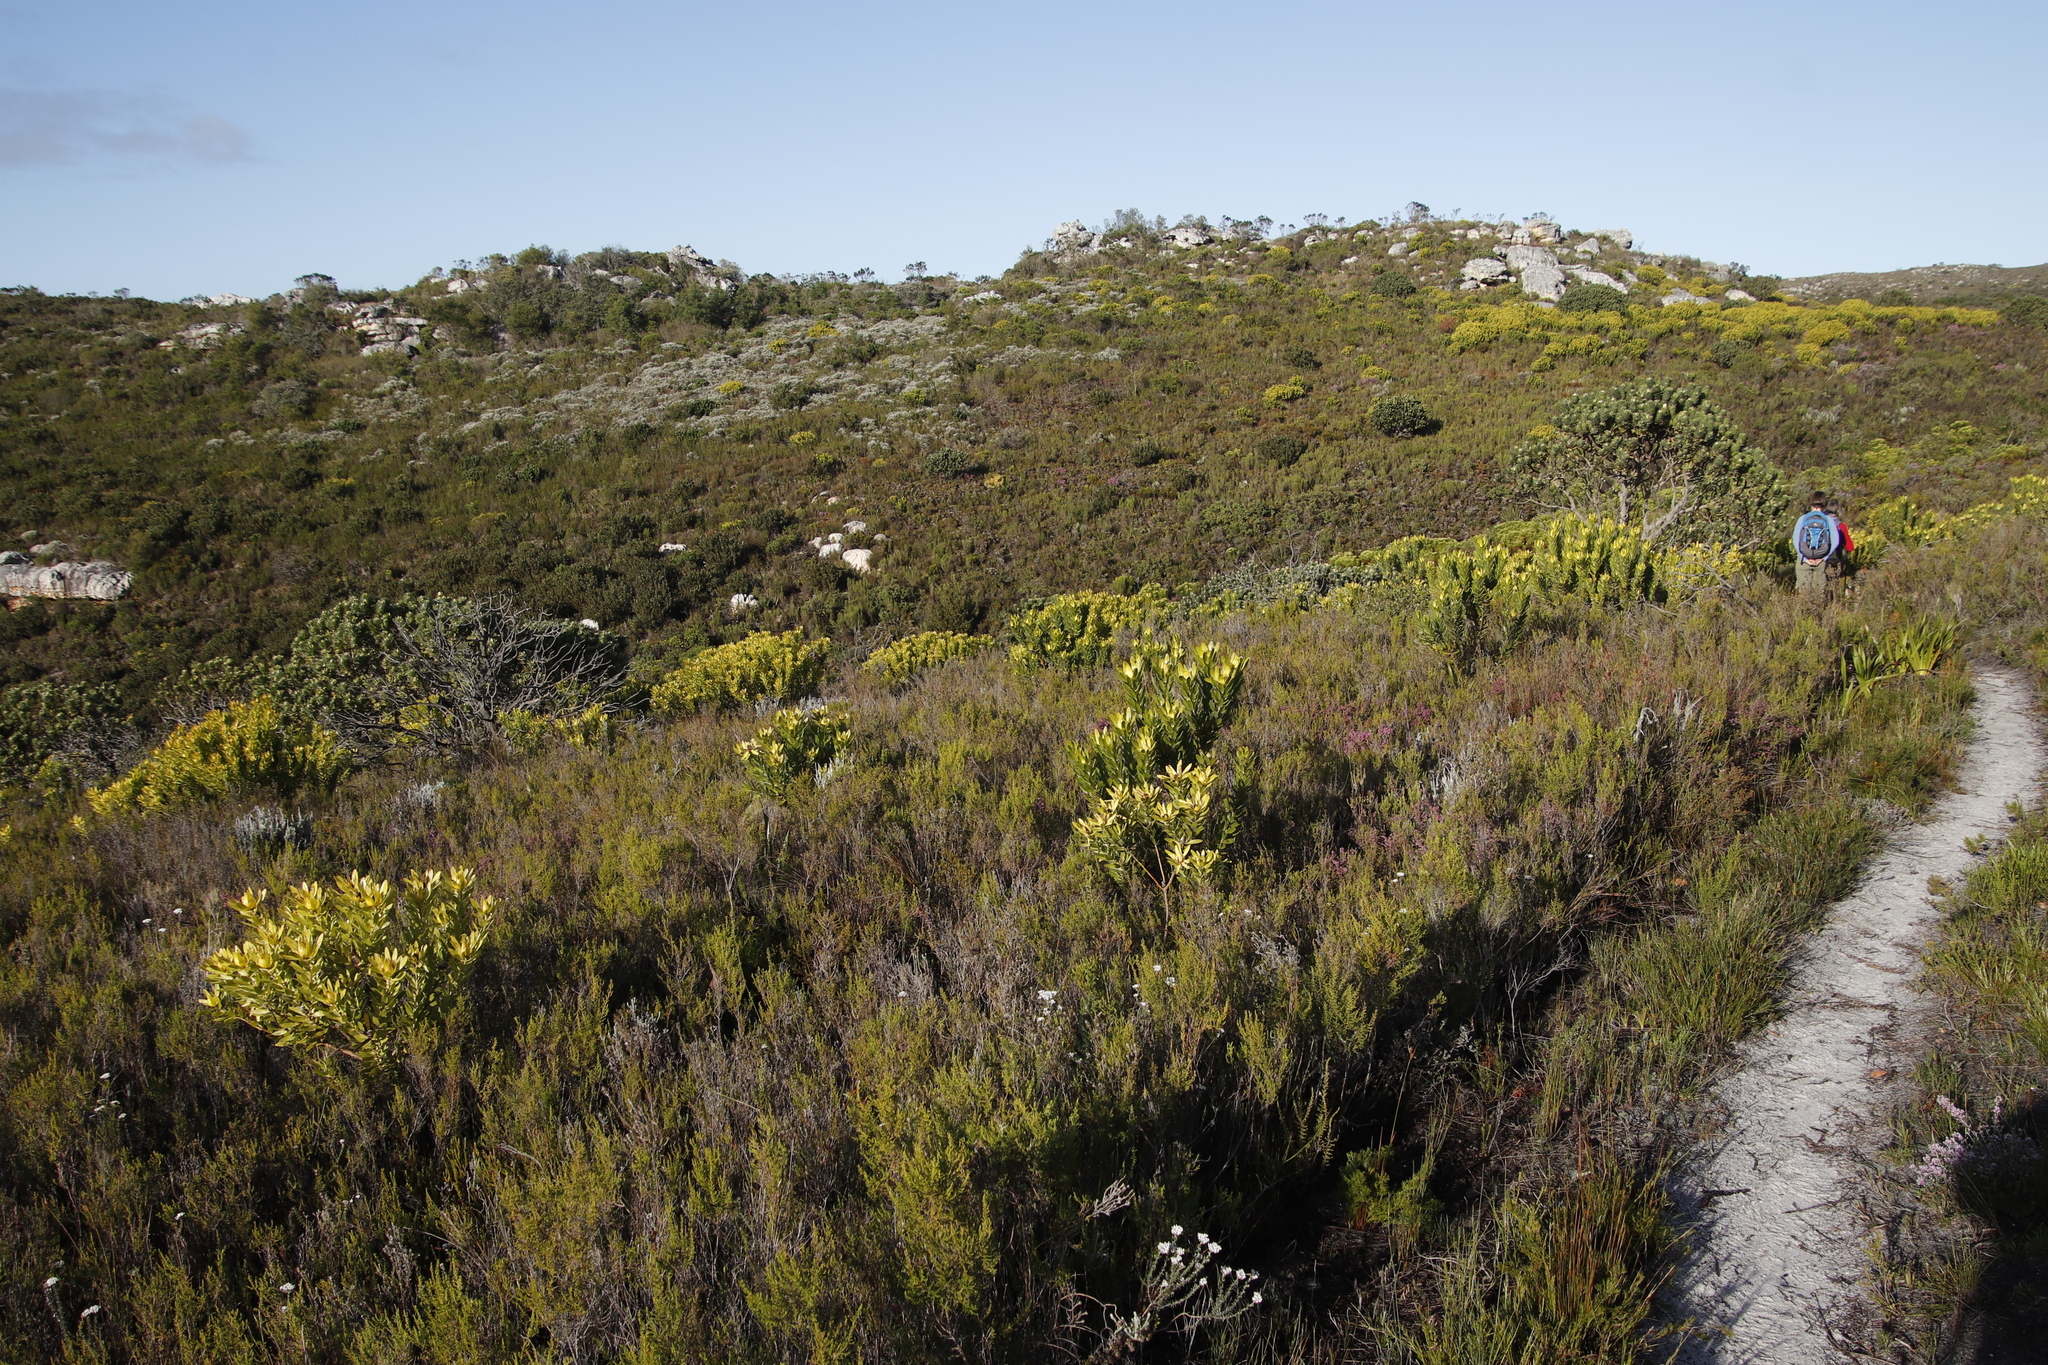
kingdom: Plantae
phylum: Tracheophyta
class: Magnoliopsida
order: Proteales
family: Proteaceae
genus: Leucadendron
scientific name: Leucadendron laureolum
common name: Golden sunshinebush
